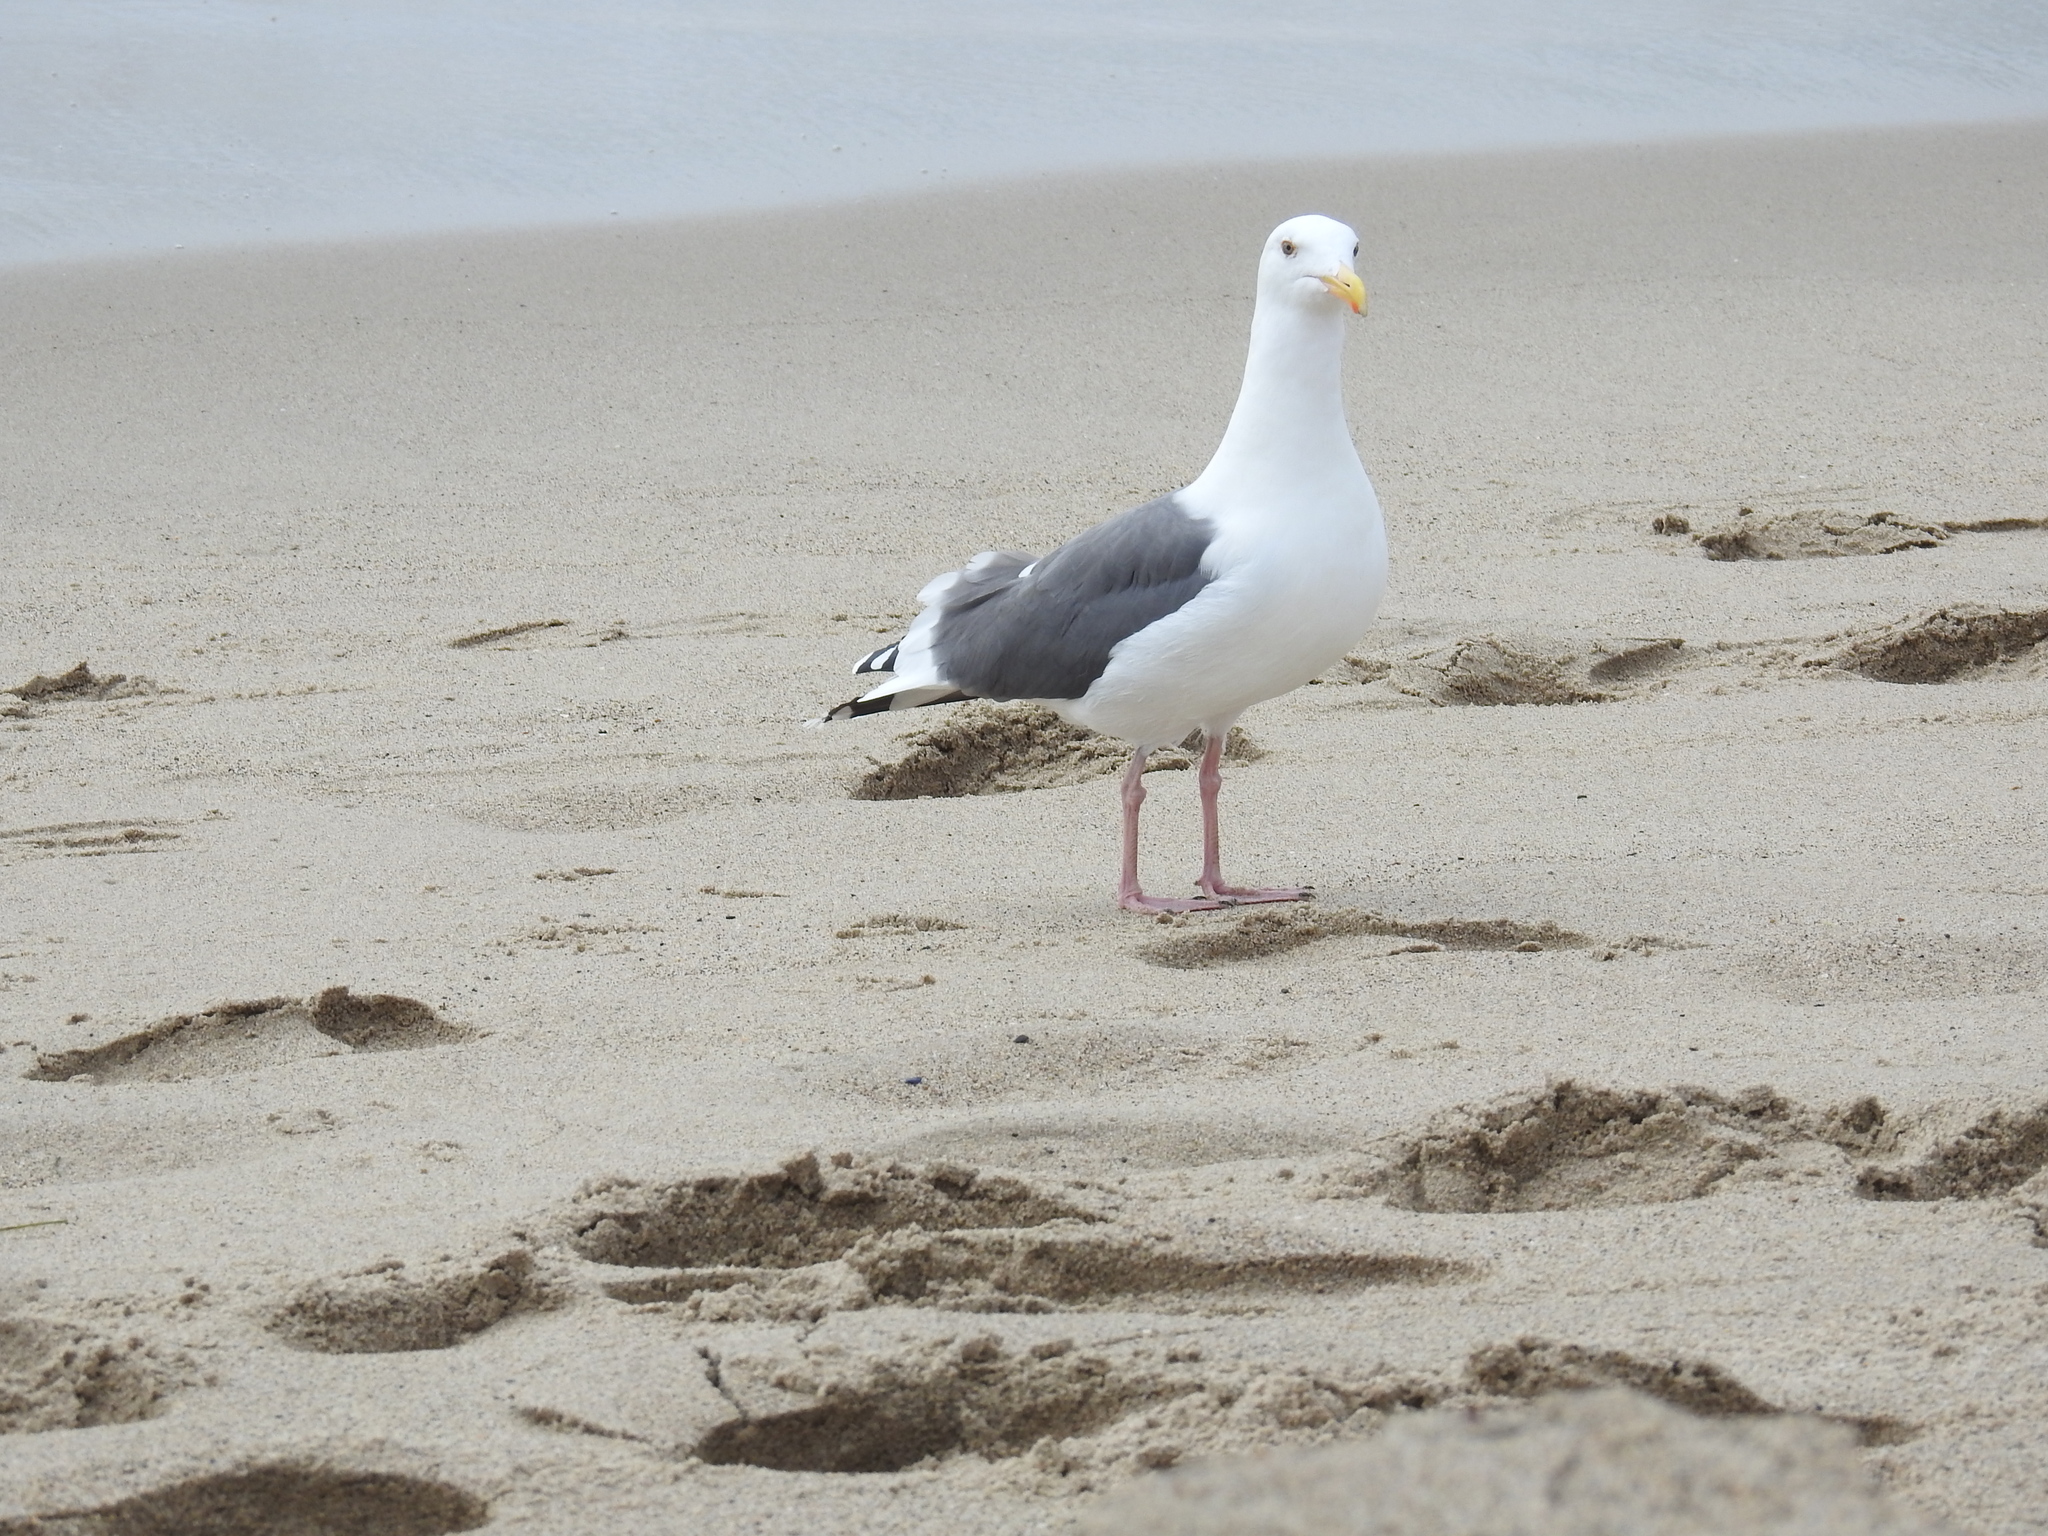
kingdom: Animalia
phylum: Chordata
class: Aves
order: Charadriiformes
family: Laridae
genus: Larus
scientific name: Larus occidentalis
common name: Western gull
